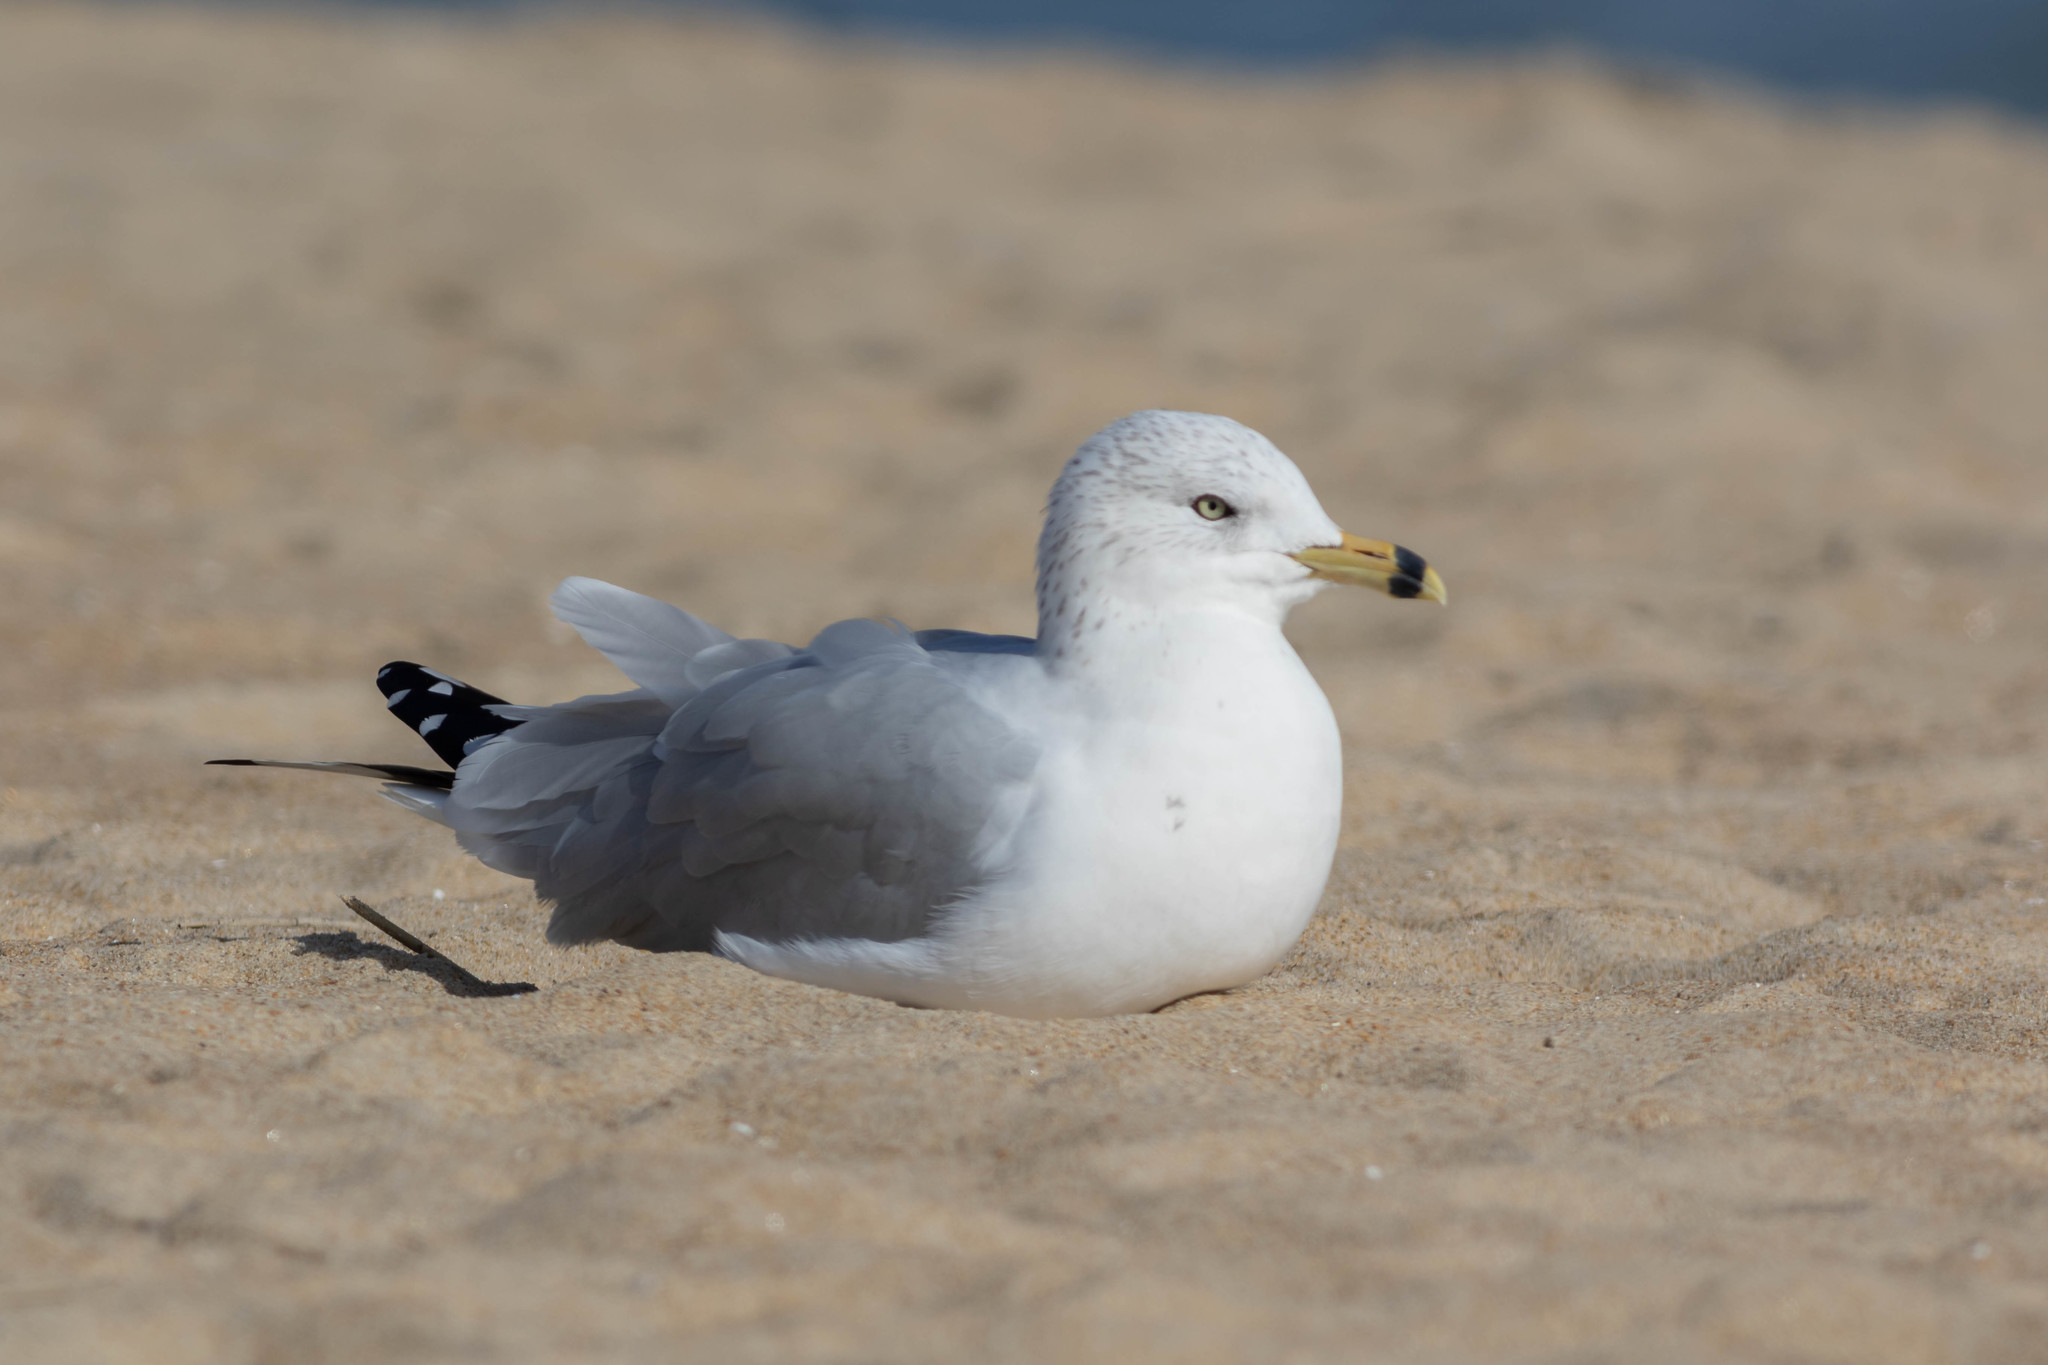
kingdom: Animalia
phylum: Chordata
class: Aves
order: Charadriiformes
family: Laridae
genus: Larus
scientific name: Larus delawarensis
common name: Ring-billed gull
